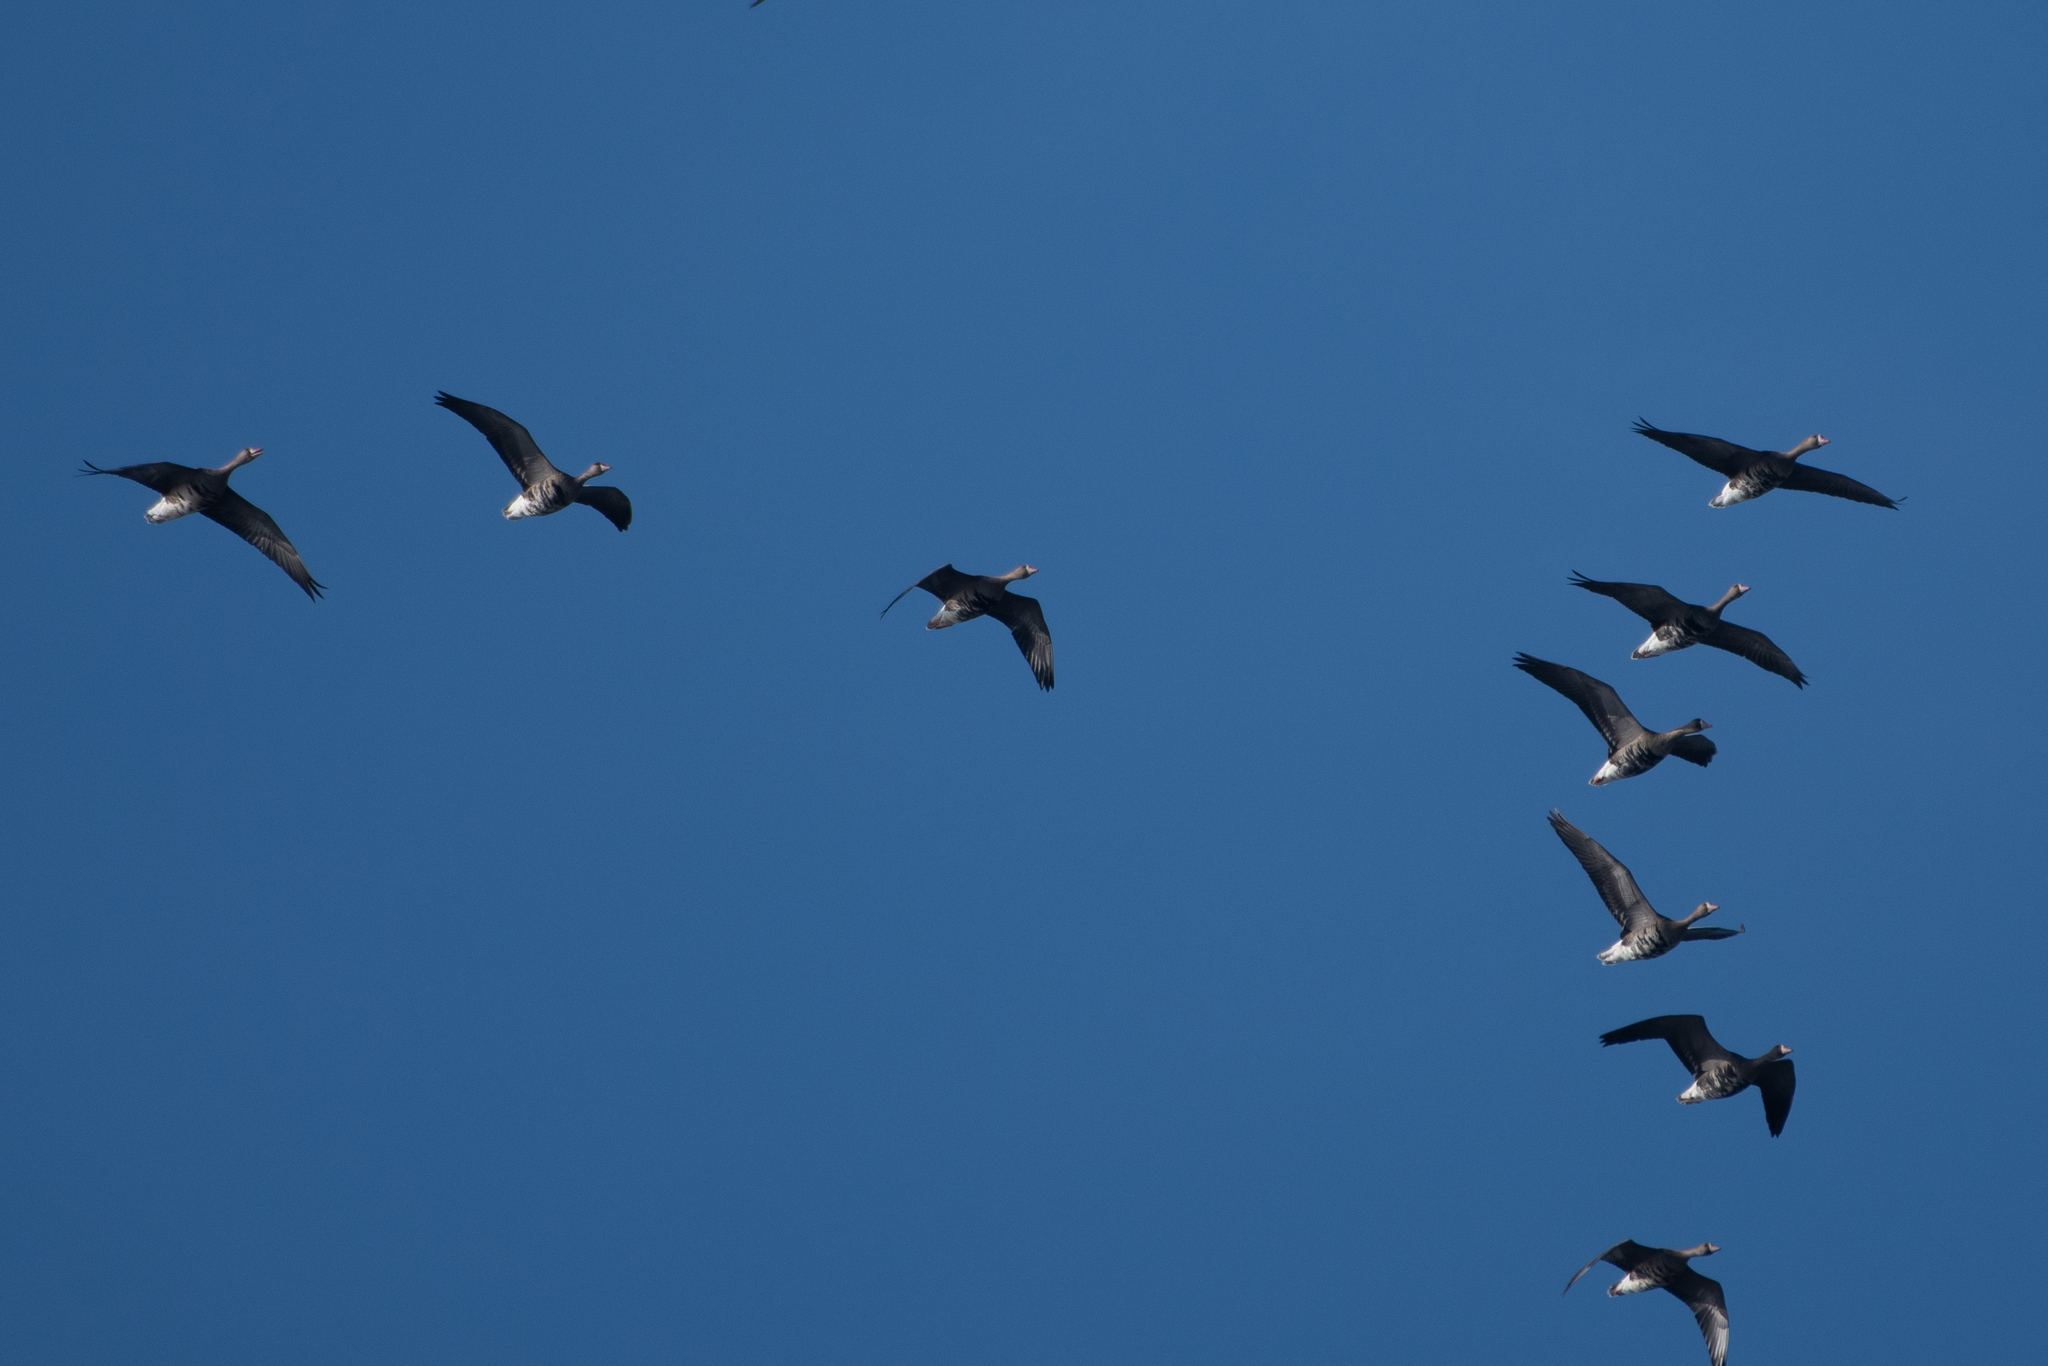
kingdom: Animalia
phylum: Chordata
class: Aves
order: Anseriformes
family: Anatidae
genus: Anser
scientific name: Anser albifrons
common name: Greater white-fronted goose
